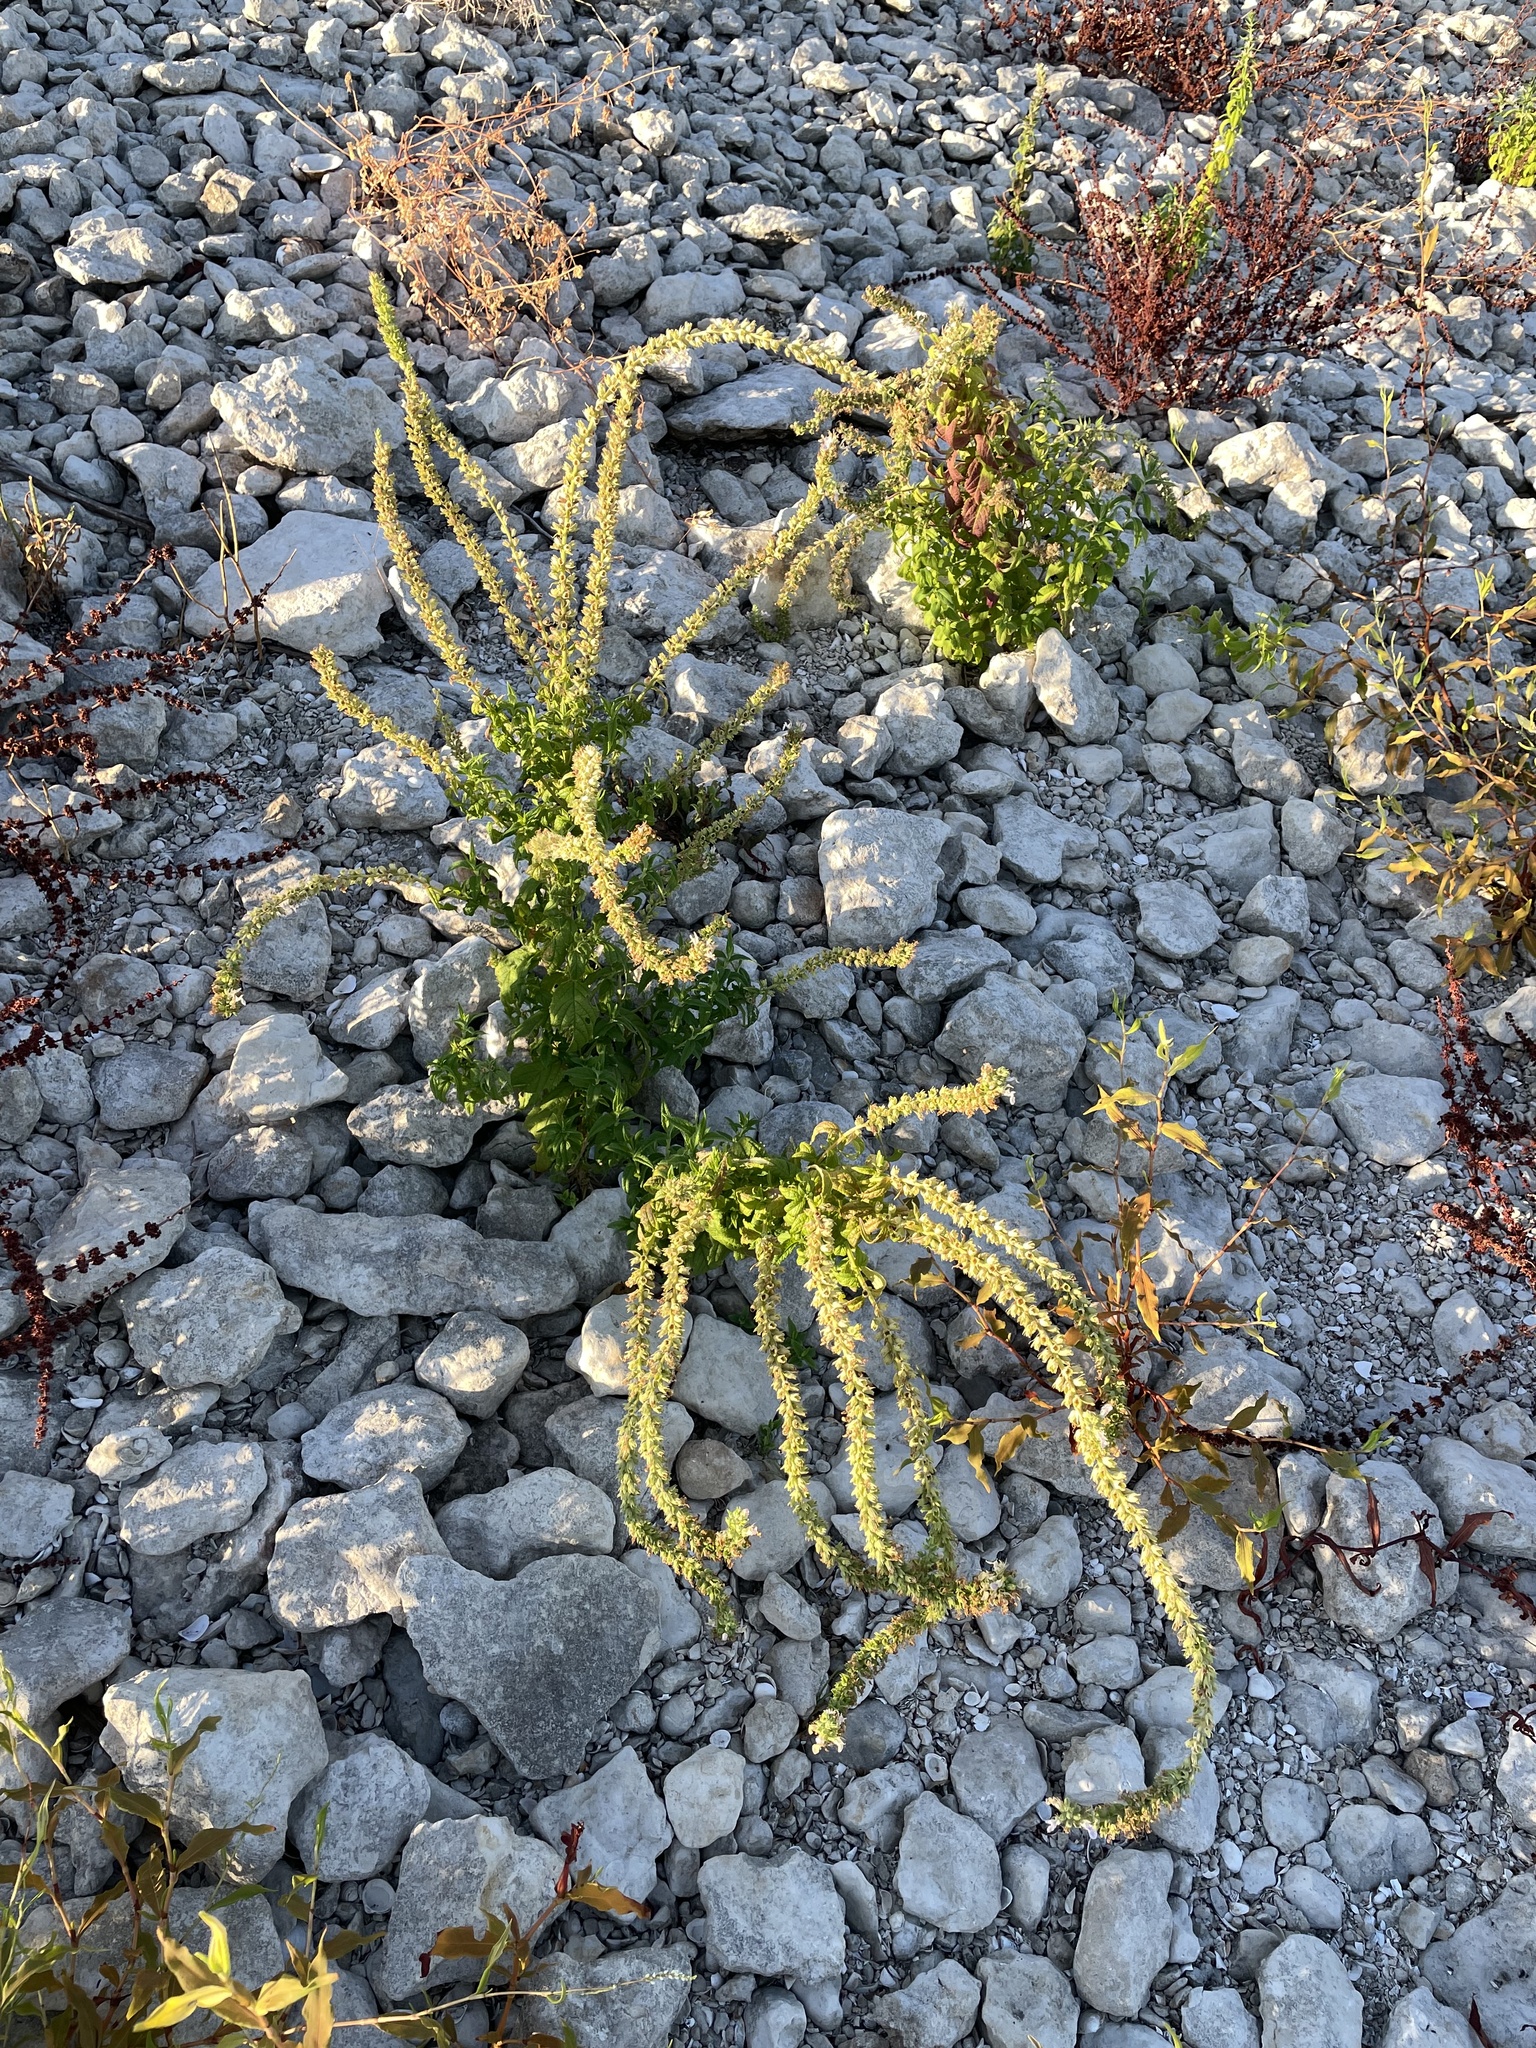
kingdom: Plantae
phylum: Tracheophyta
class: Magnoliopsida
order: Lamiales
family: Lamiaceae
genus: Teucrium
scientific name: Teucrium canadense
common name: American germander
